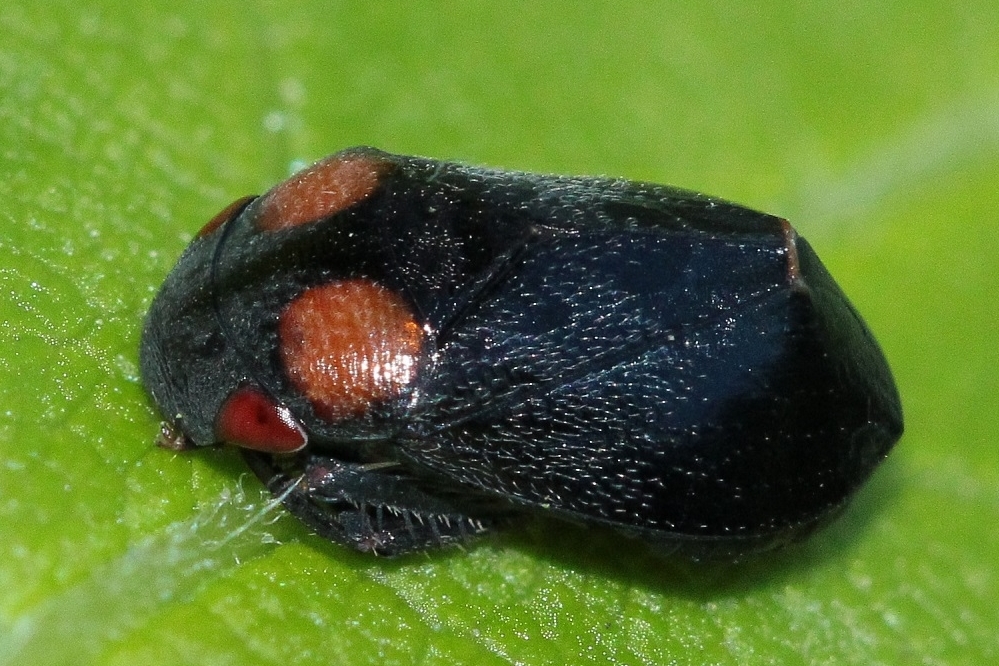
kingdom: Animalia
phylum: Arthropoda
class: Insecta
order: Hemiptera
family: Cicadellidae
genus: Penthimia
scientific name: Penthimia nigra
